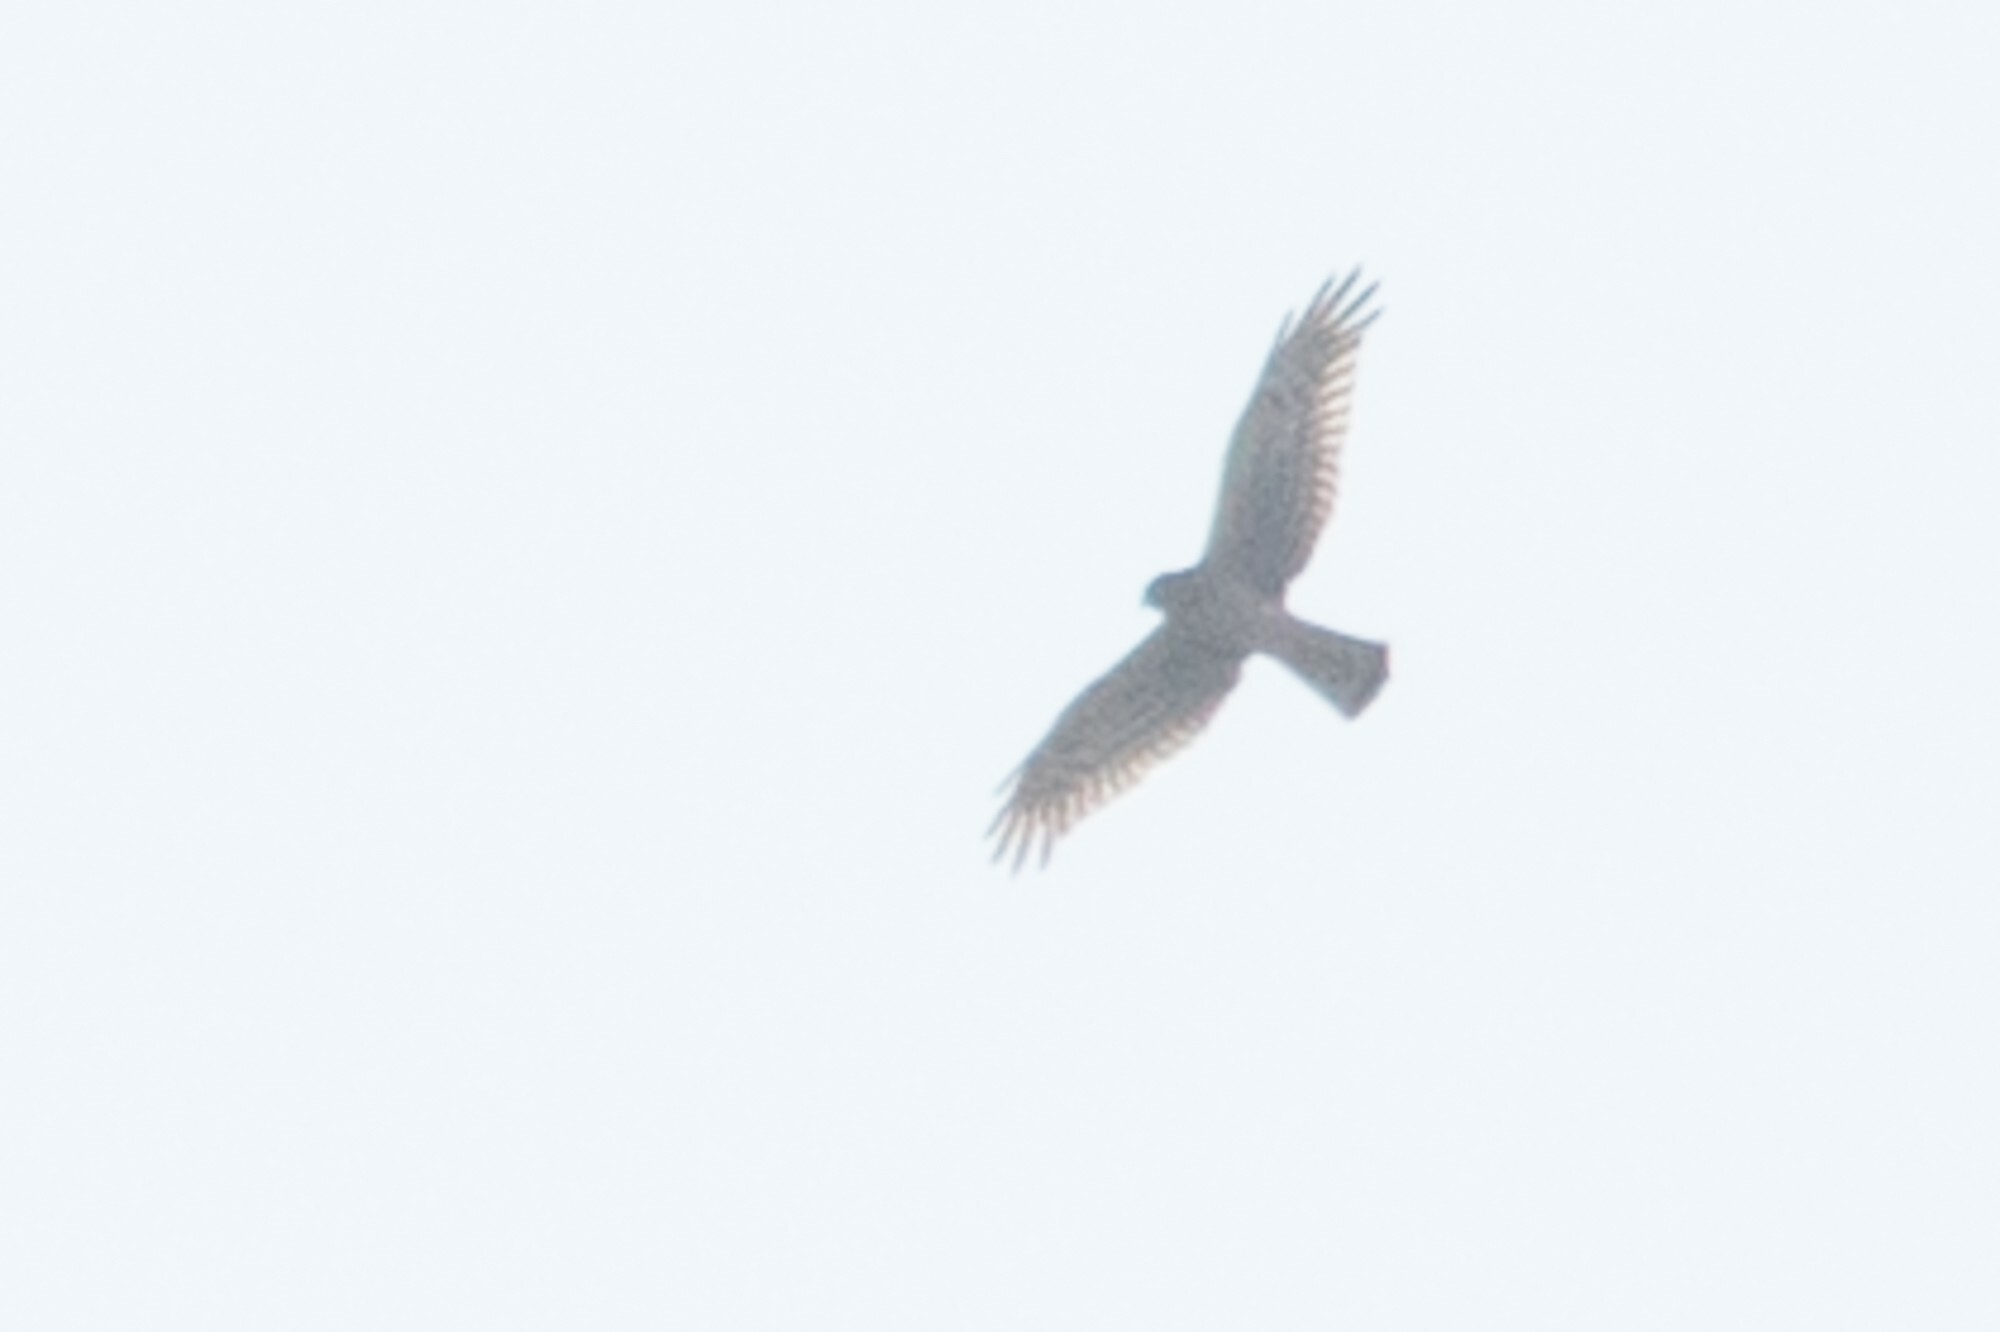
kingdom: Animalia
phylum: Chordata
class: Aves
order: Accipitriformes
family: Accipitridae
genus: Circus
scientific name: Circus cyaneus
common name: Hen harrier
